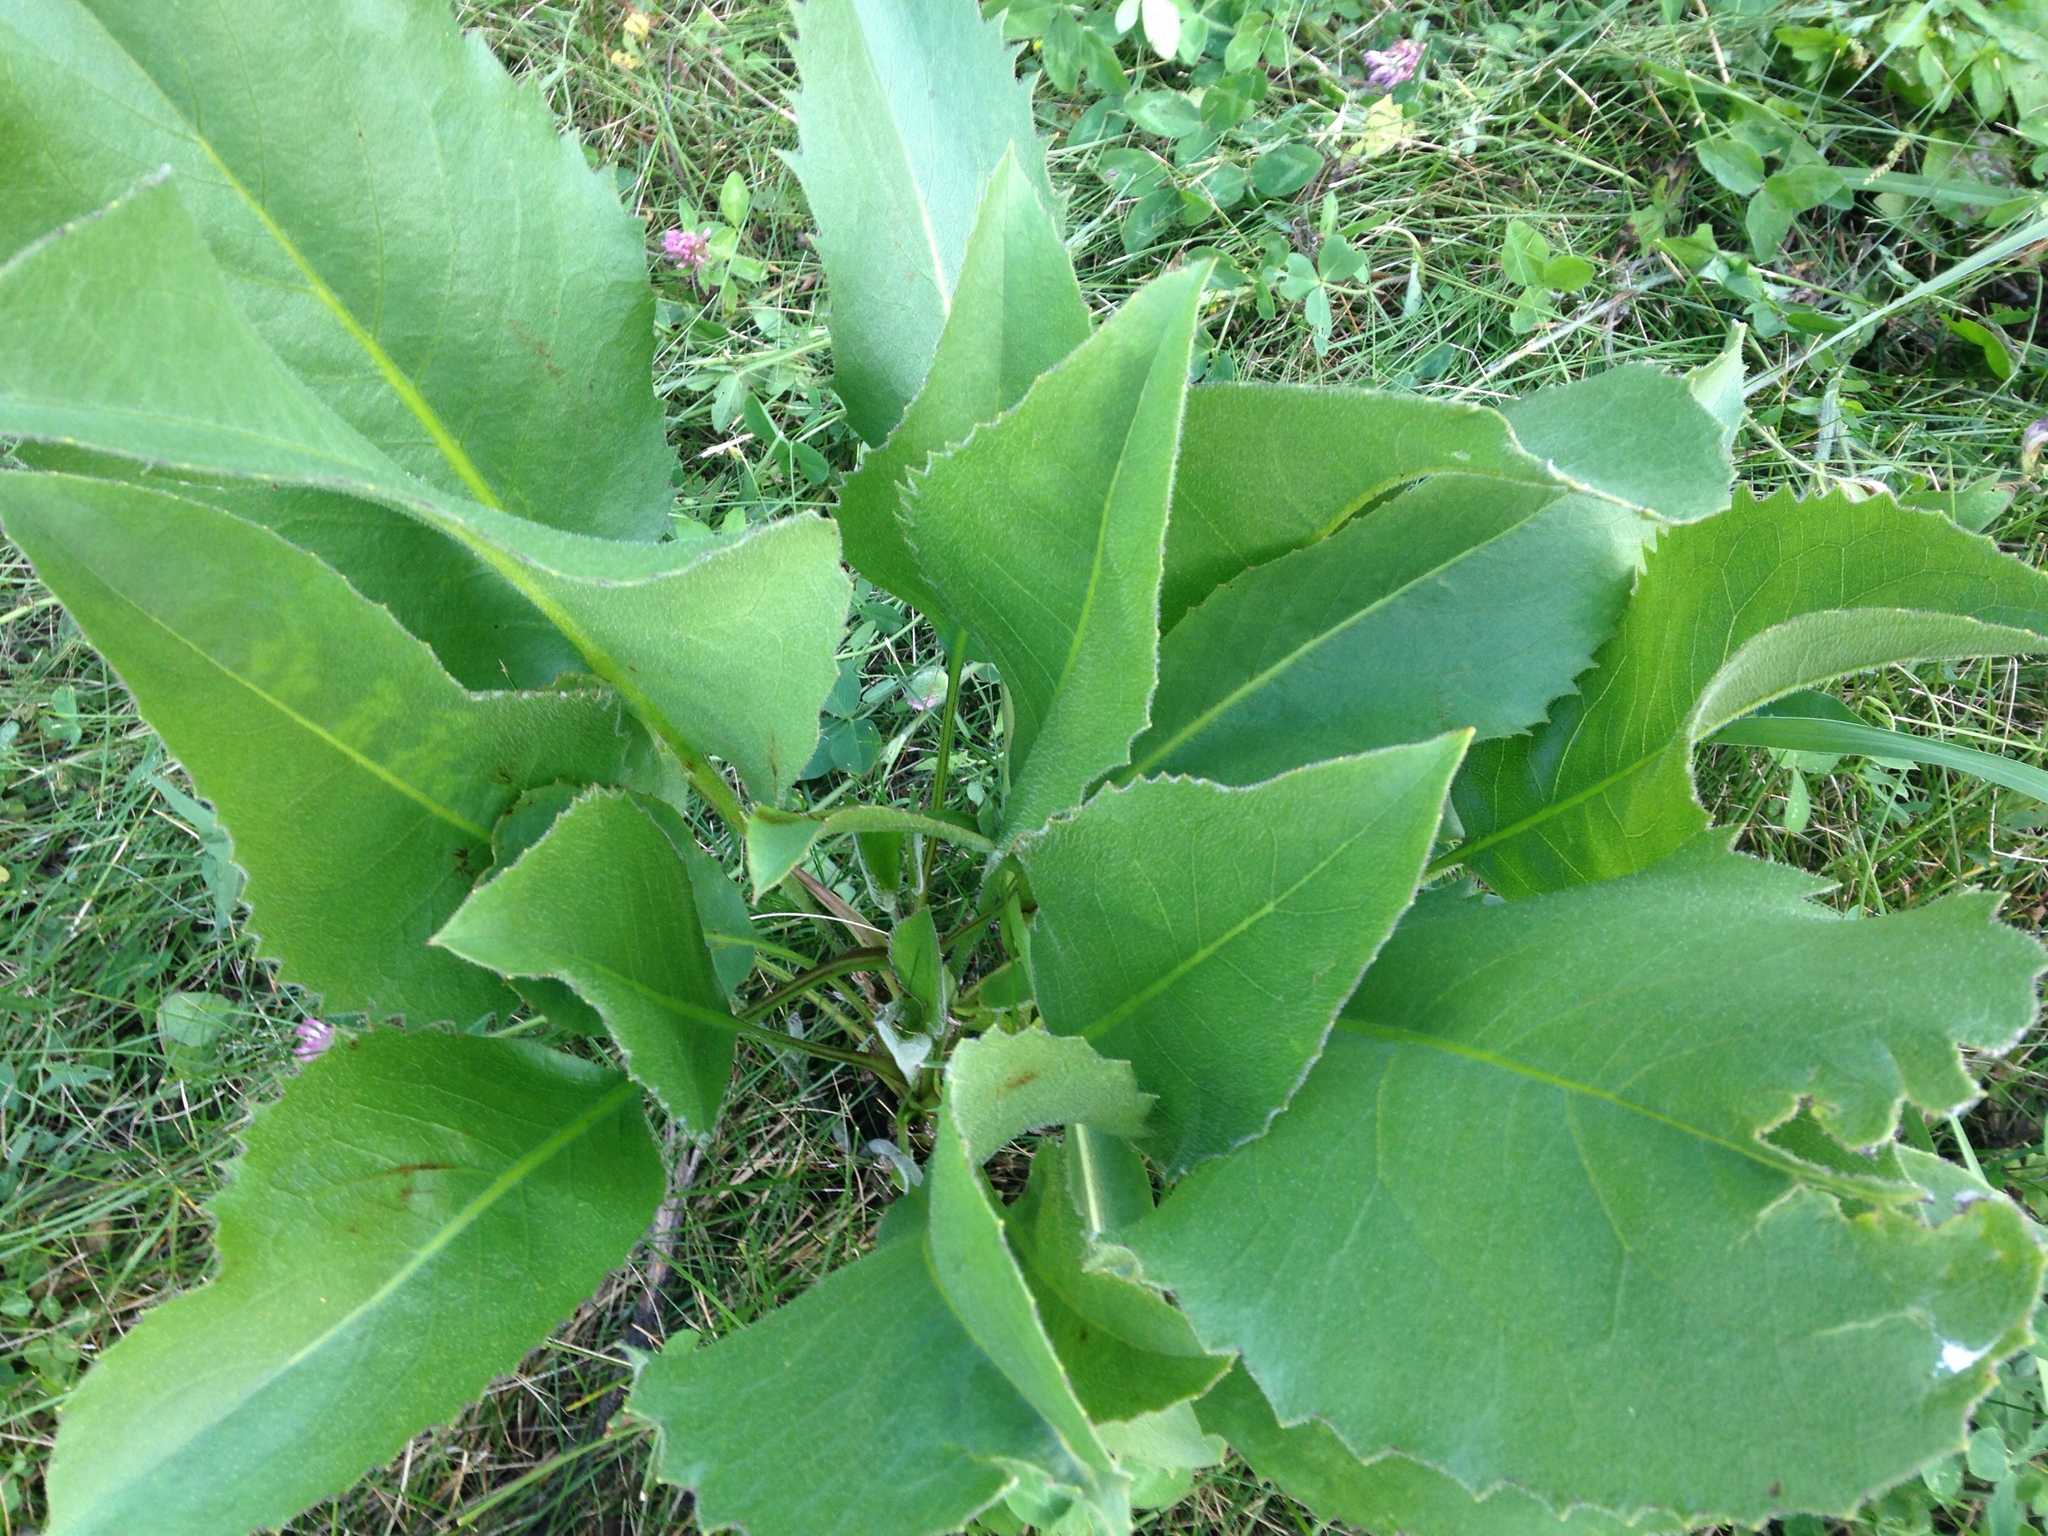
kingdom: Plantae
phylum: Tracheophyta
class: Magnoliopsida
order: Asterales
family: Asteraceae
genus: Silphium
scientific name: Silphium terebinthinaceum
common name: Basal-leaf rosinweed
